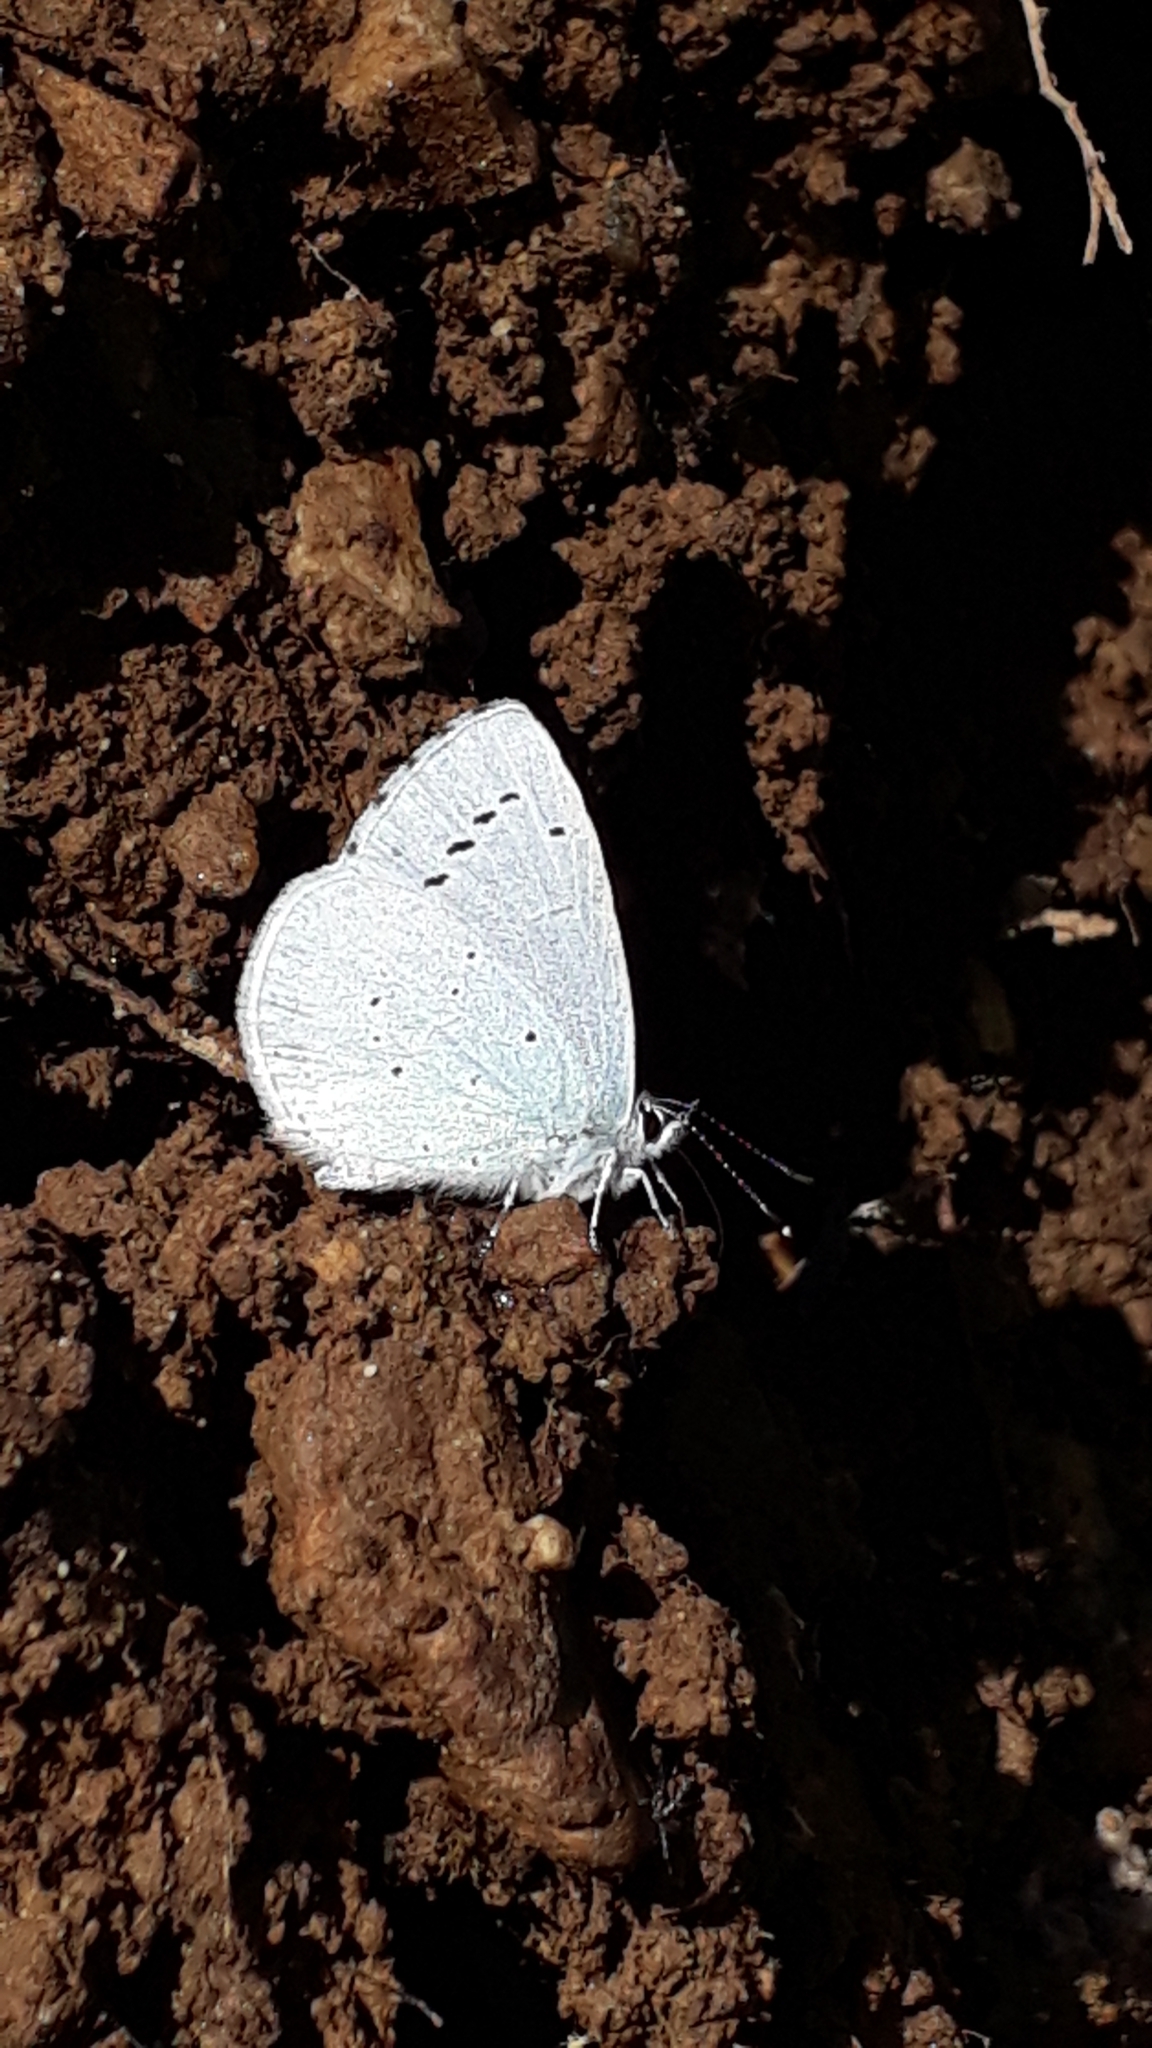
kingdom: Animalia
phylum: Arthropoda
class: Insecta
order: Lepidoptera
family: Lycaenidae
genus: Celastrina
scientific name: Celastrina argiolus
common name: Holly blue
